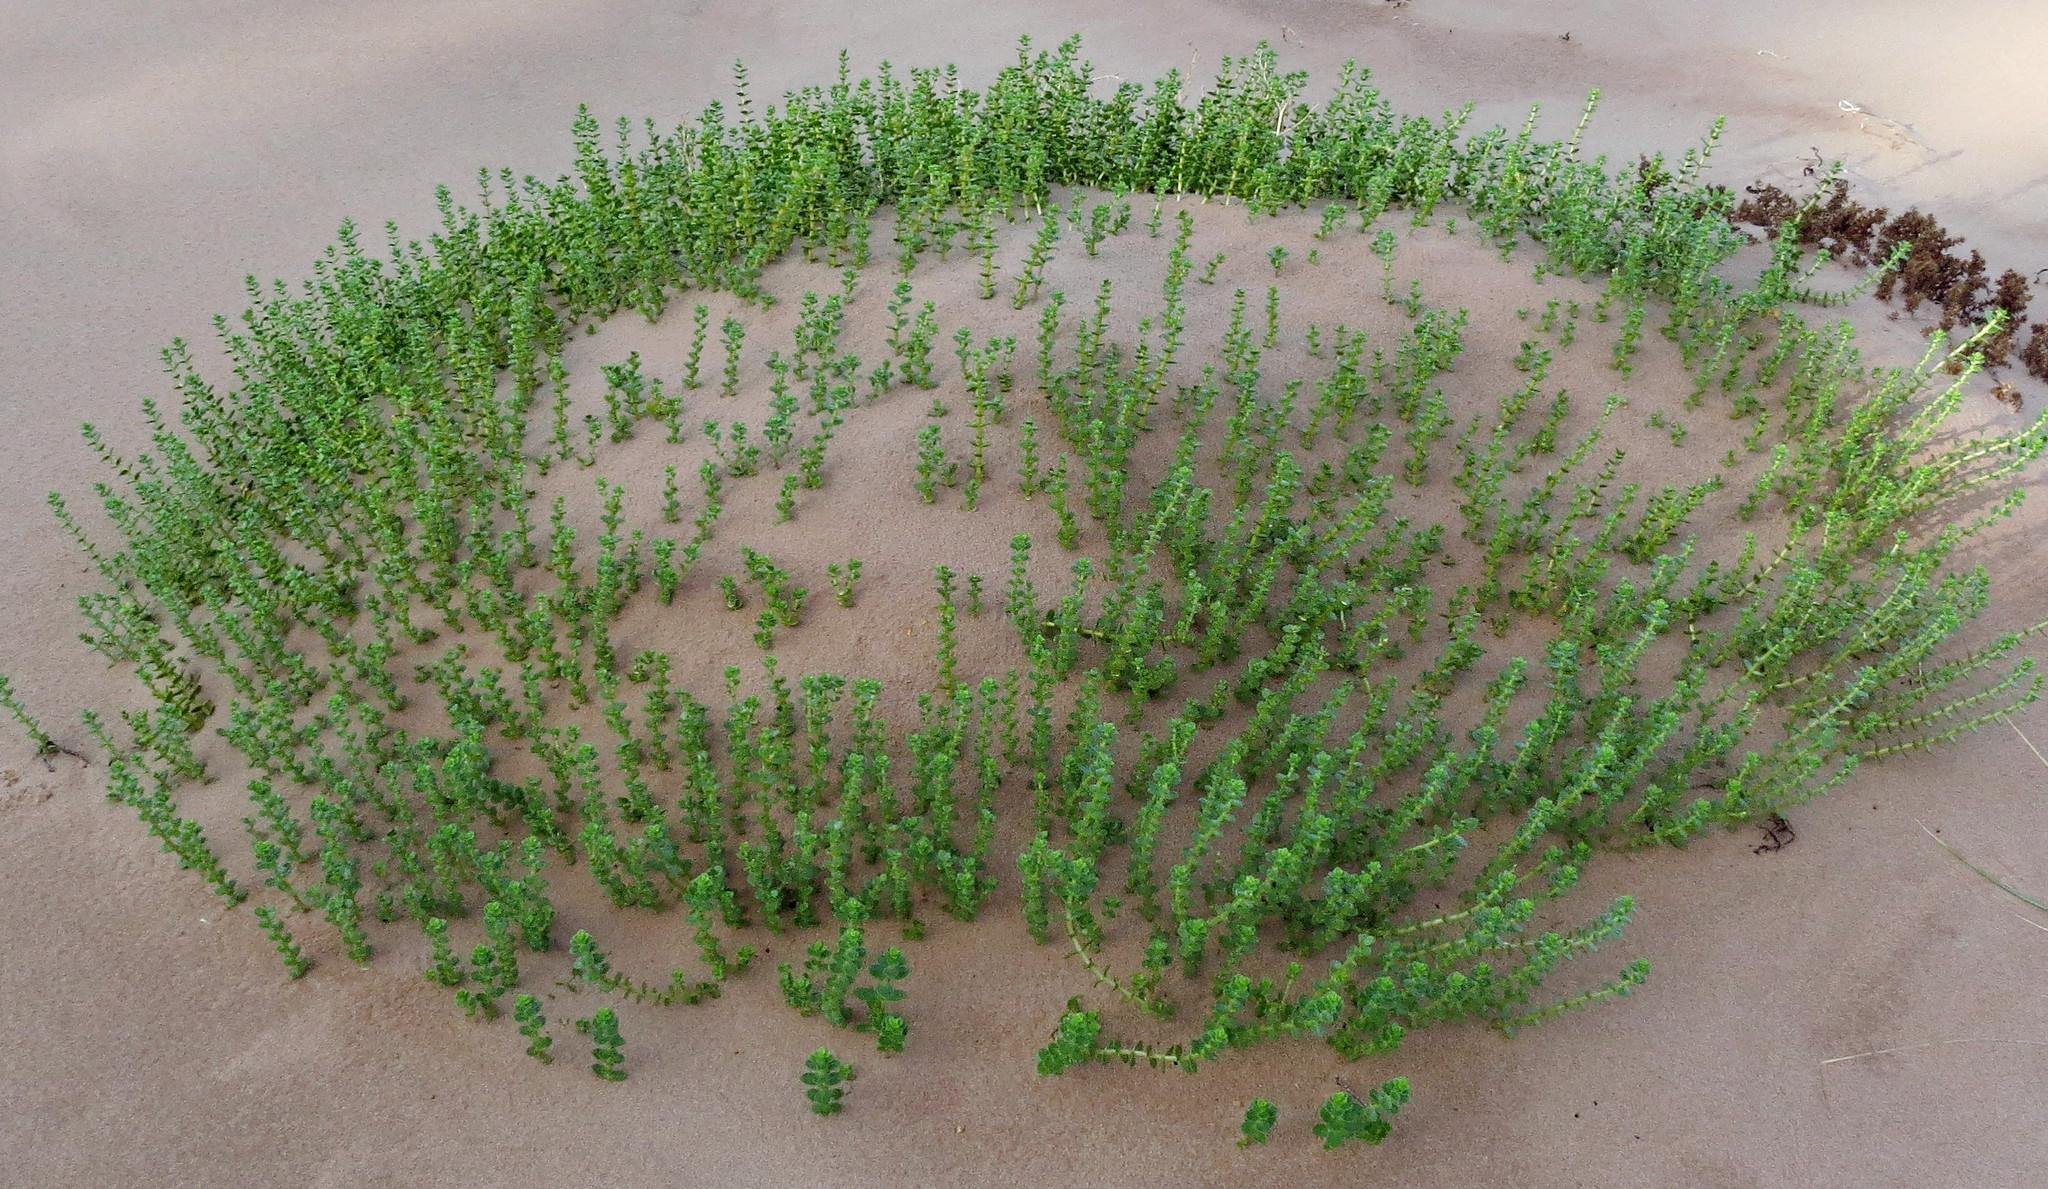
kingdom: Plantae
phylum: Tracheophyta
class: Magnoliopsida
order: Caryophyllales
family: Caryophyllaceae
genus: Honckenya
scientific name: Honckenya peploides
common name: Sea sandwort
